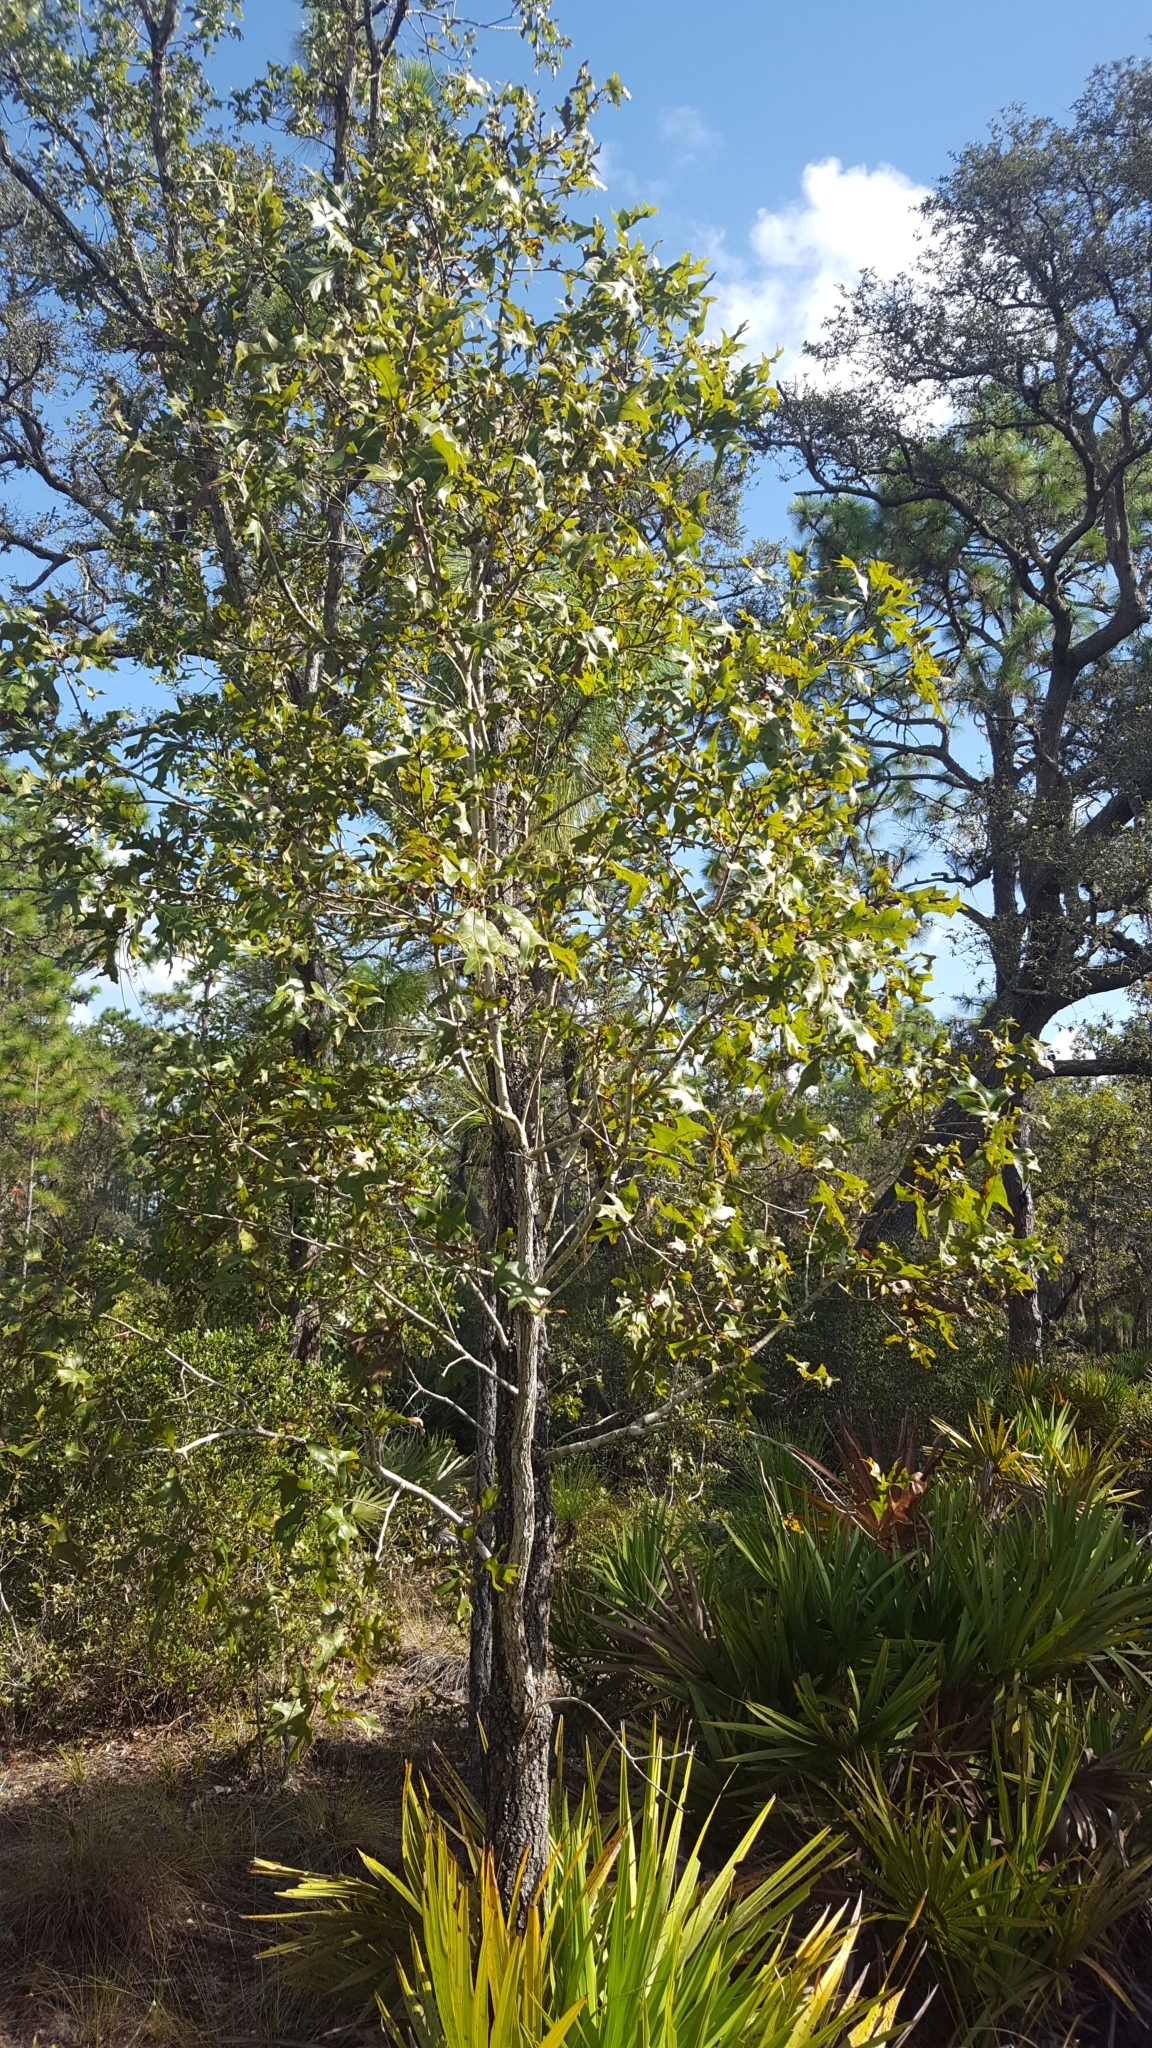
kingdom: Plantae
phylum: Tracheophyta
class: Magnoliopsida
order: Fagales
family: Fagaceae
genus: Quercus
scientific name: Quercus laevis
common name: Turkey oak
